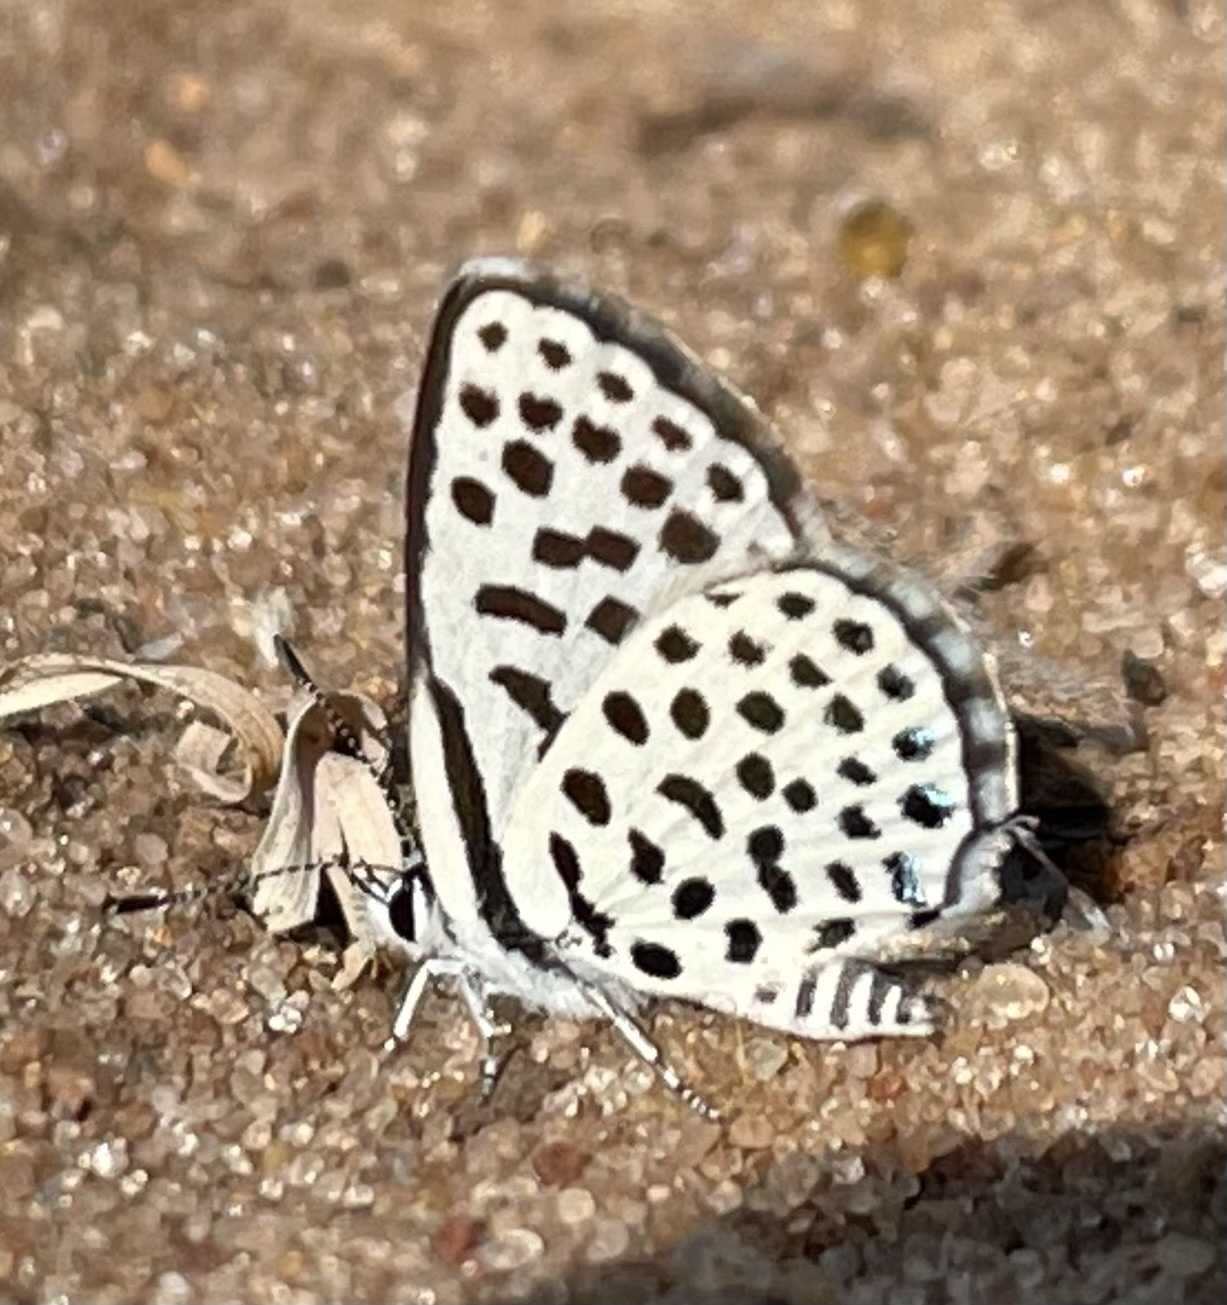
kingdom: Animalia
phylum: Arthropoda
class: Insecta
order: Lepidoptera
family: Lycaenidae
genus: Tarucus
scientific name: Tarucus sybaris
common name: Dotted blue
